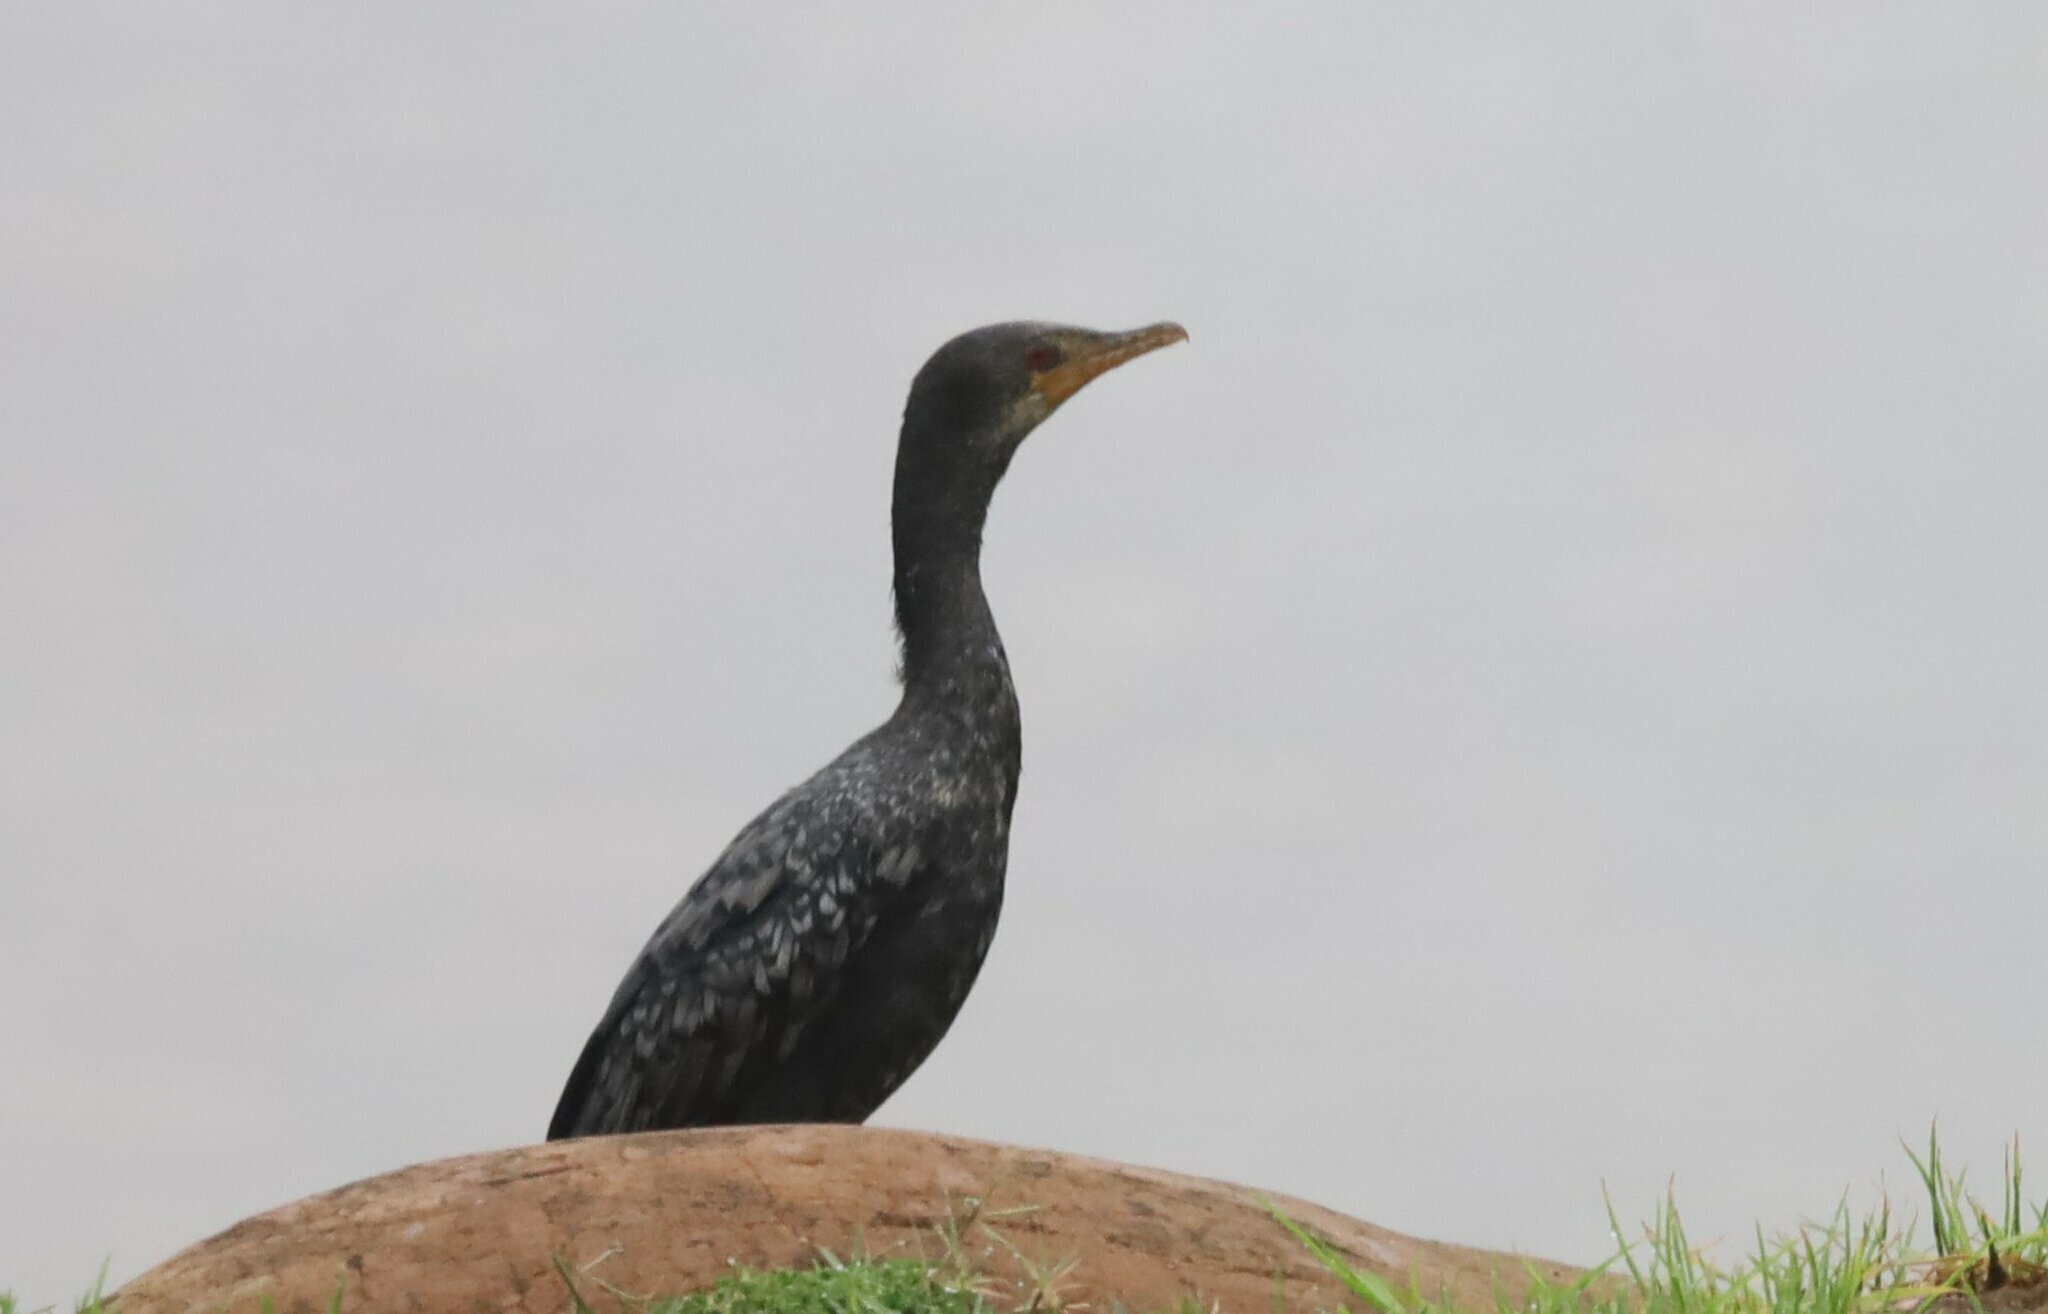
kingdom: Animalia
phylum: Chordata
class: Aves
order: Suliformes
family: Phalacrocoracidae
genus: Microcarbo
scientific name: Microcarbo africanus
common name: Long-tailed cormorant
